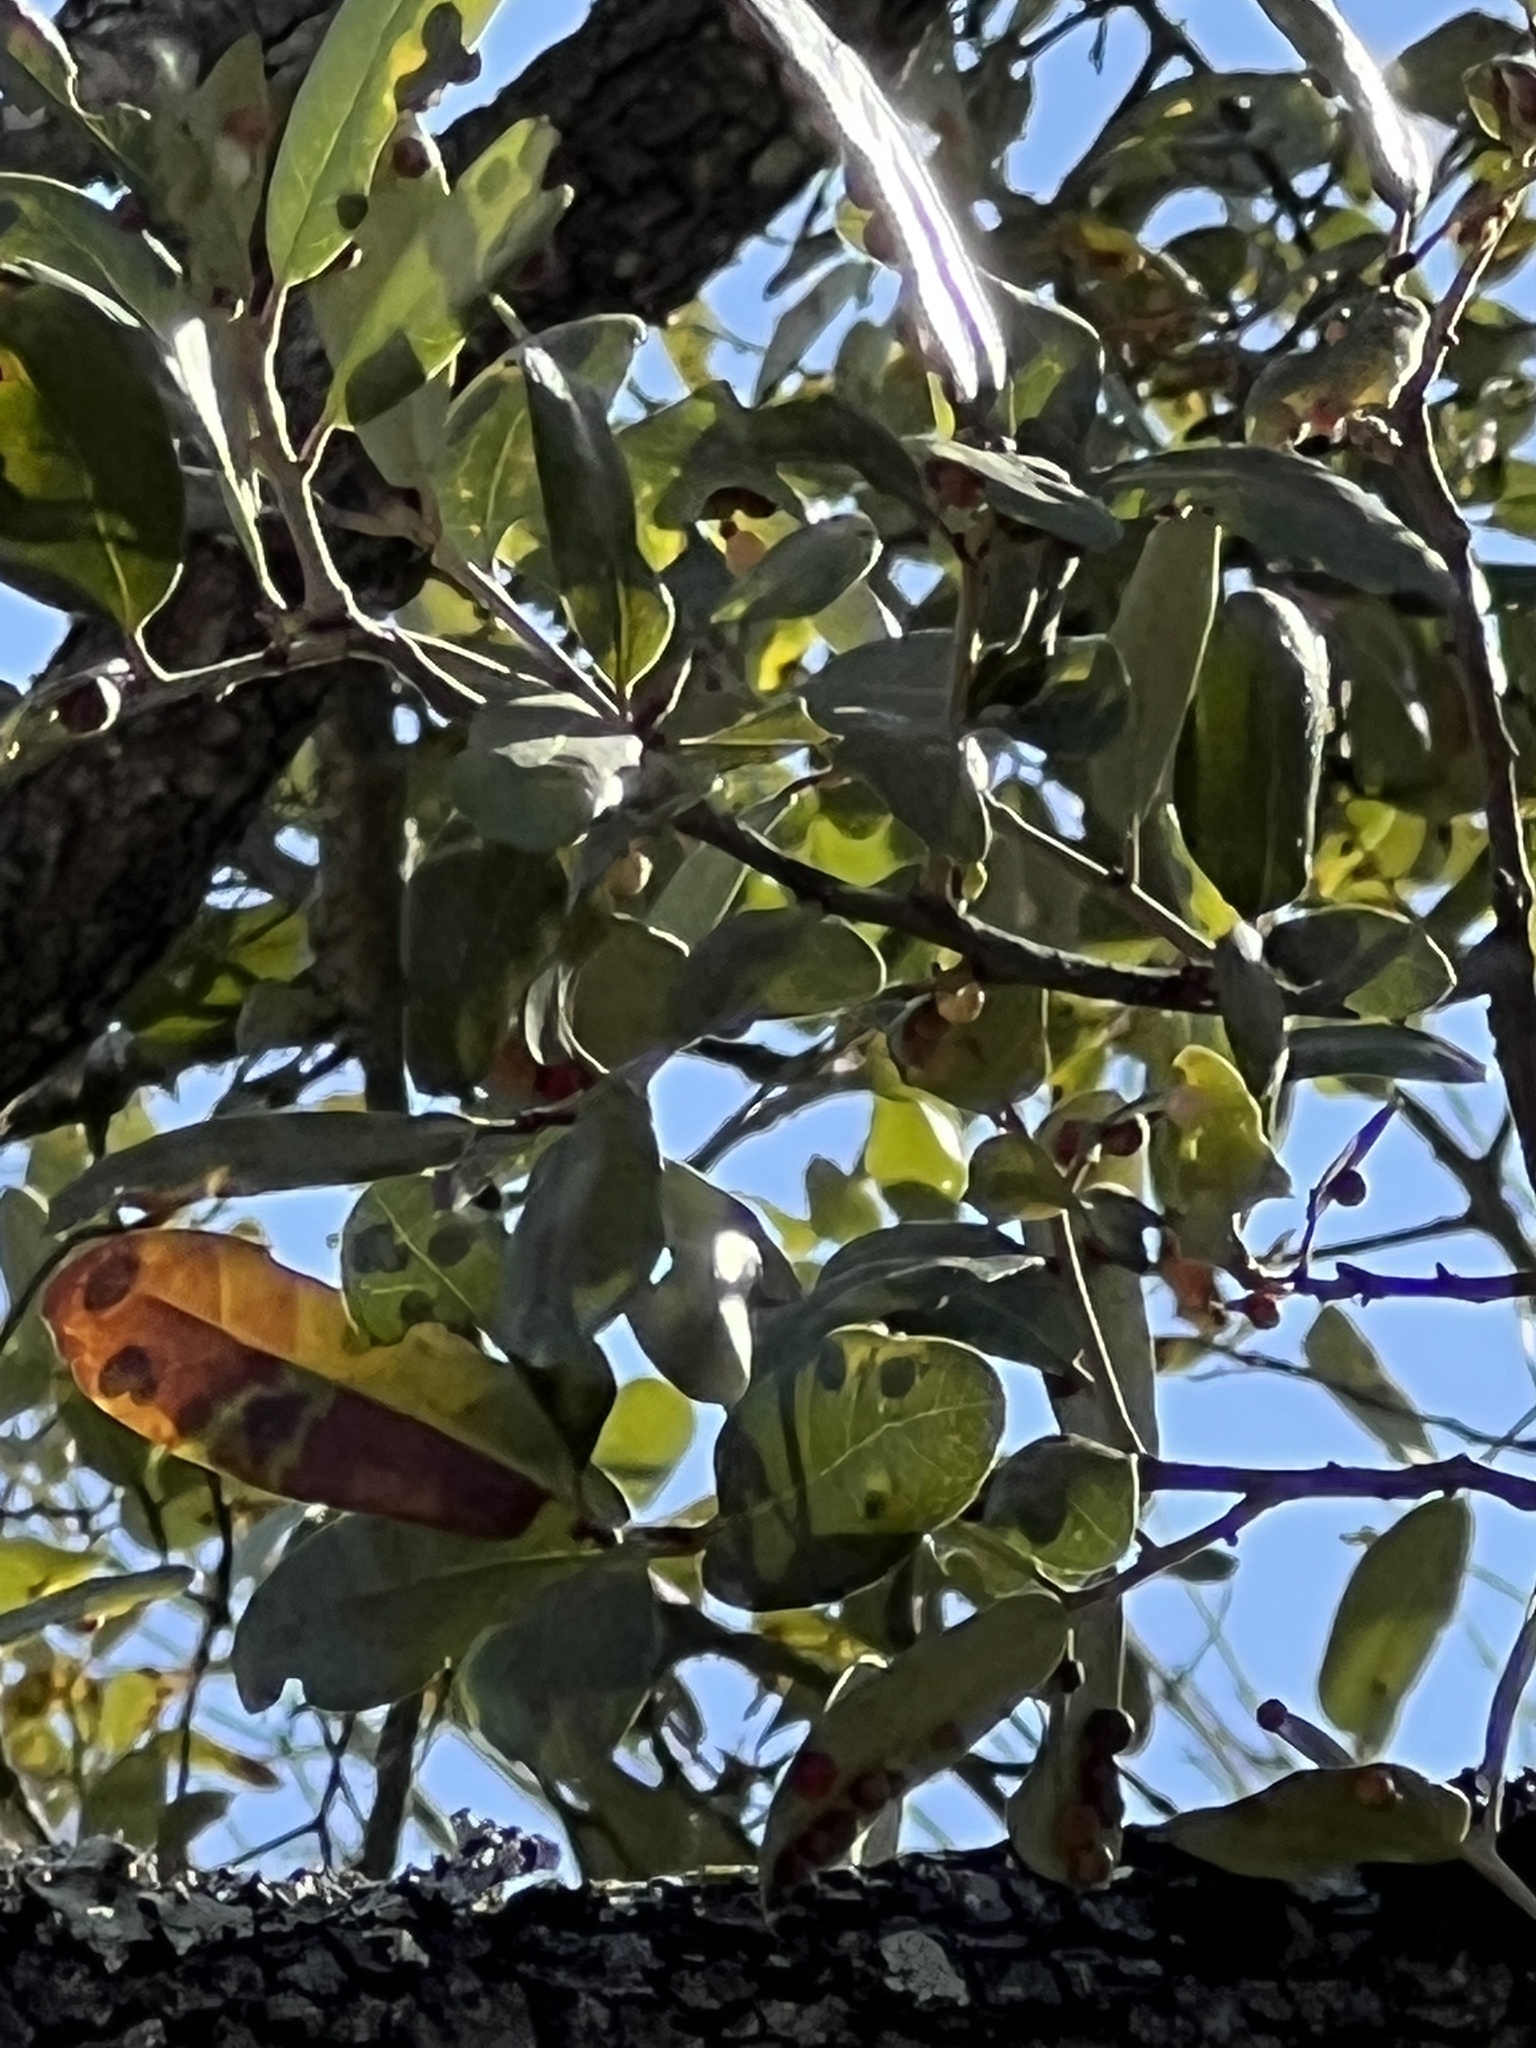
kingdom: Plantae
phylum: Tracheophyta
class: Magnoliopsida
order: Fagales
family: Fagaceae
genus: Quercus
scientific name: Quercus fusiformis
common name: Texas live oak
